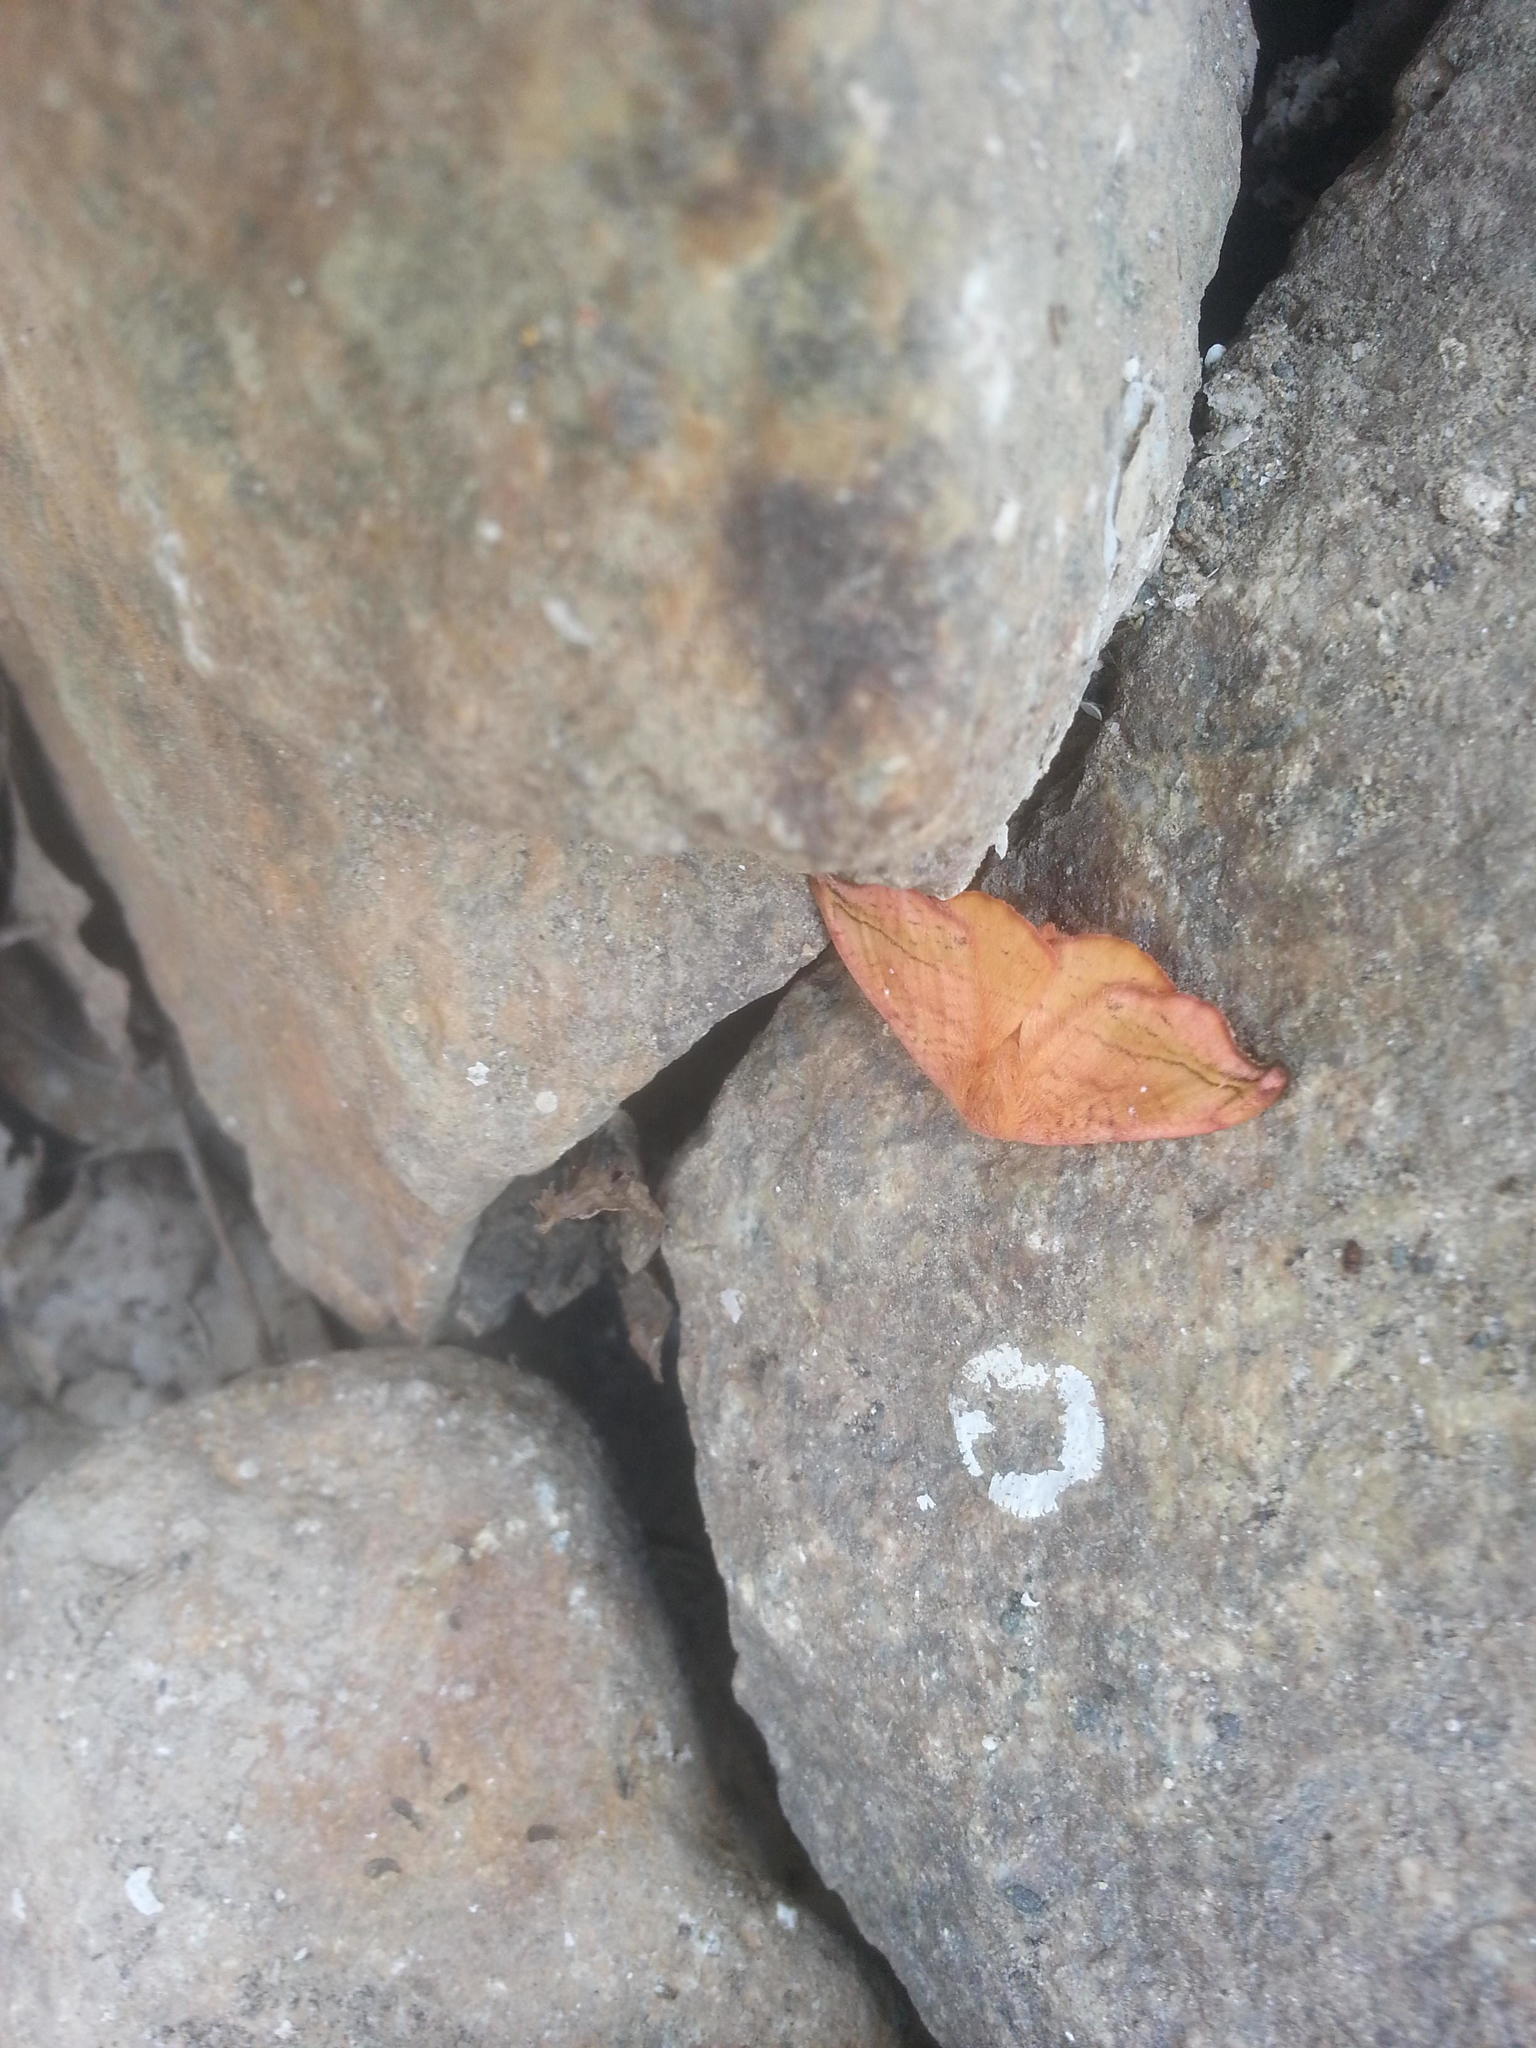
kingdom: Animalia
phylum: Arthropoda
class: Insecta
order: Lepidoptera
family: Drepanidae
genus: Oreta
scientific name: Oreta rosea
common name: Rose hooktip
